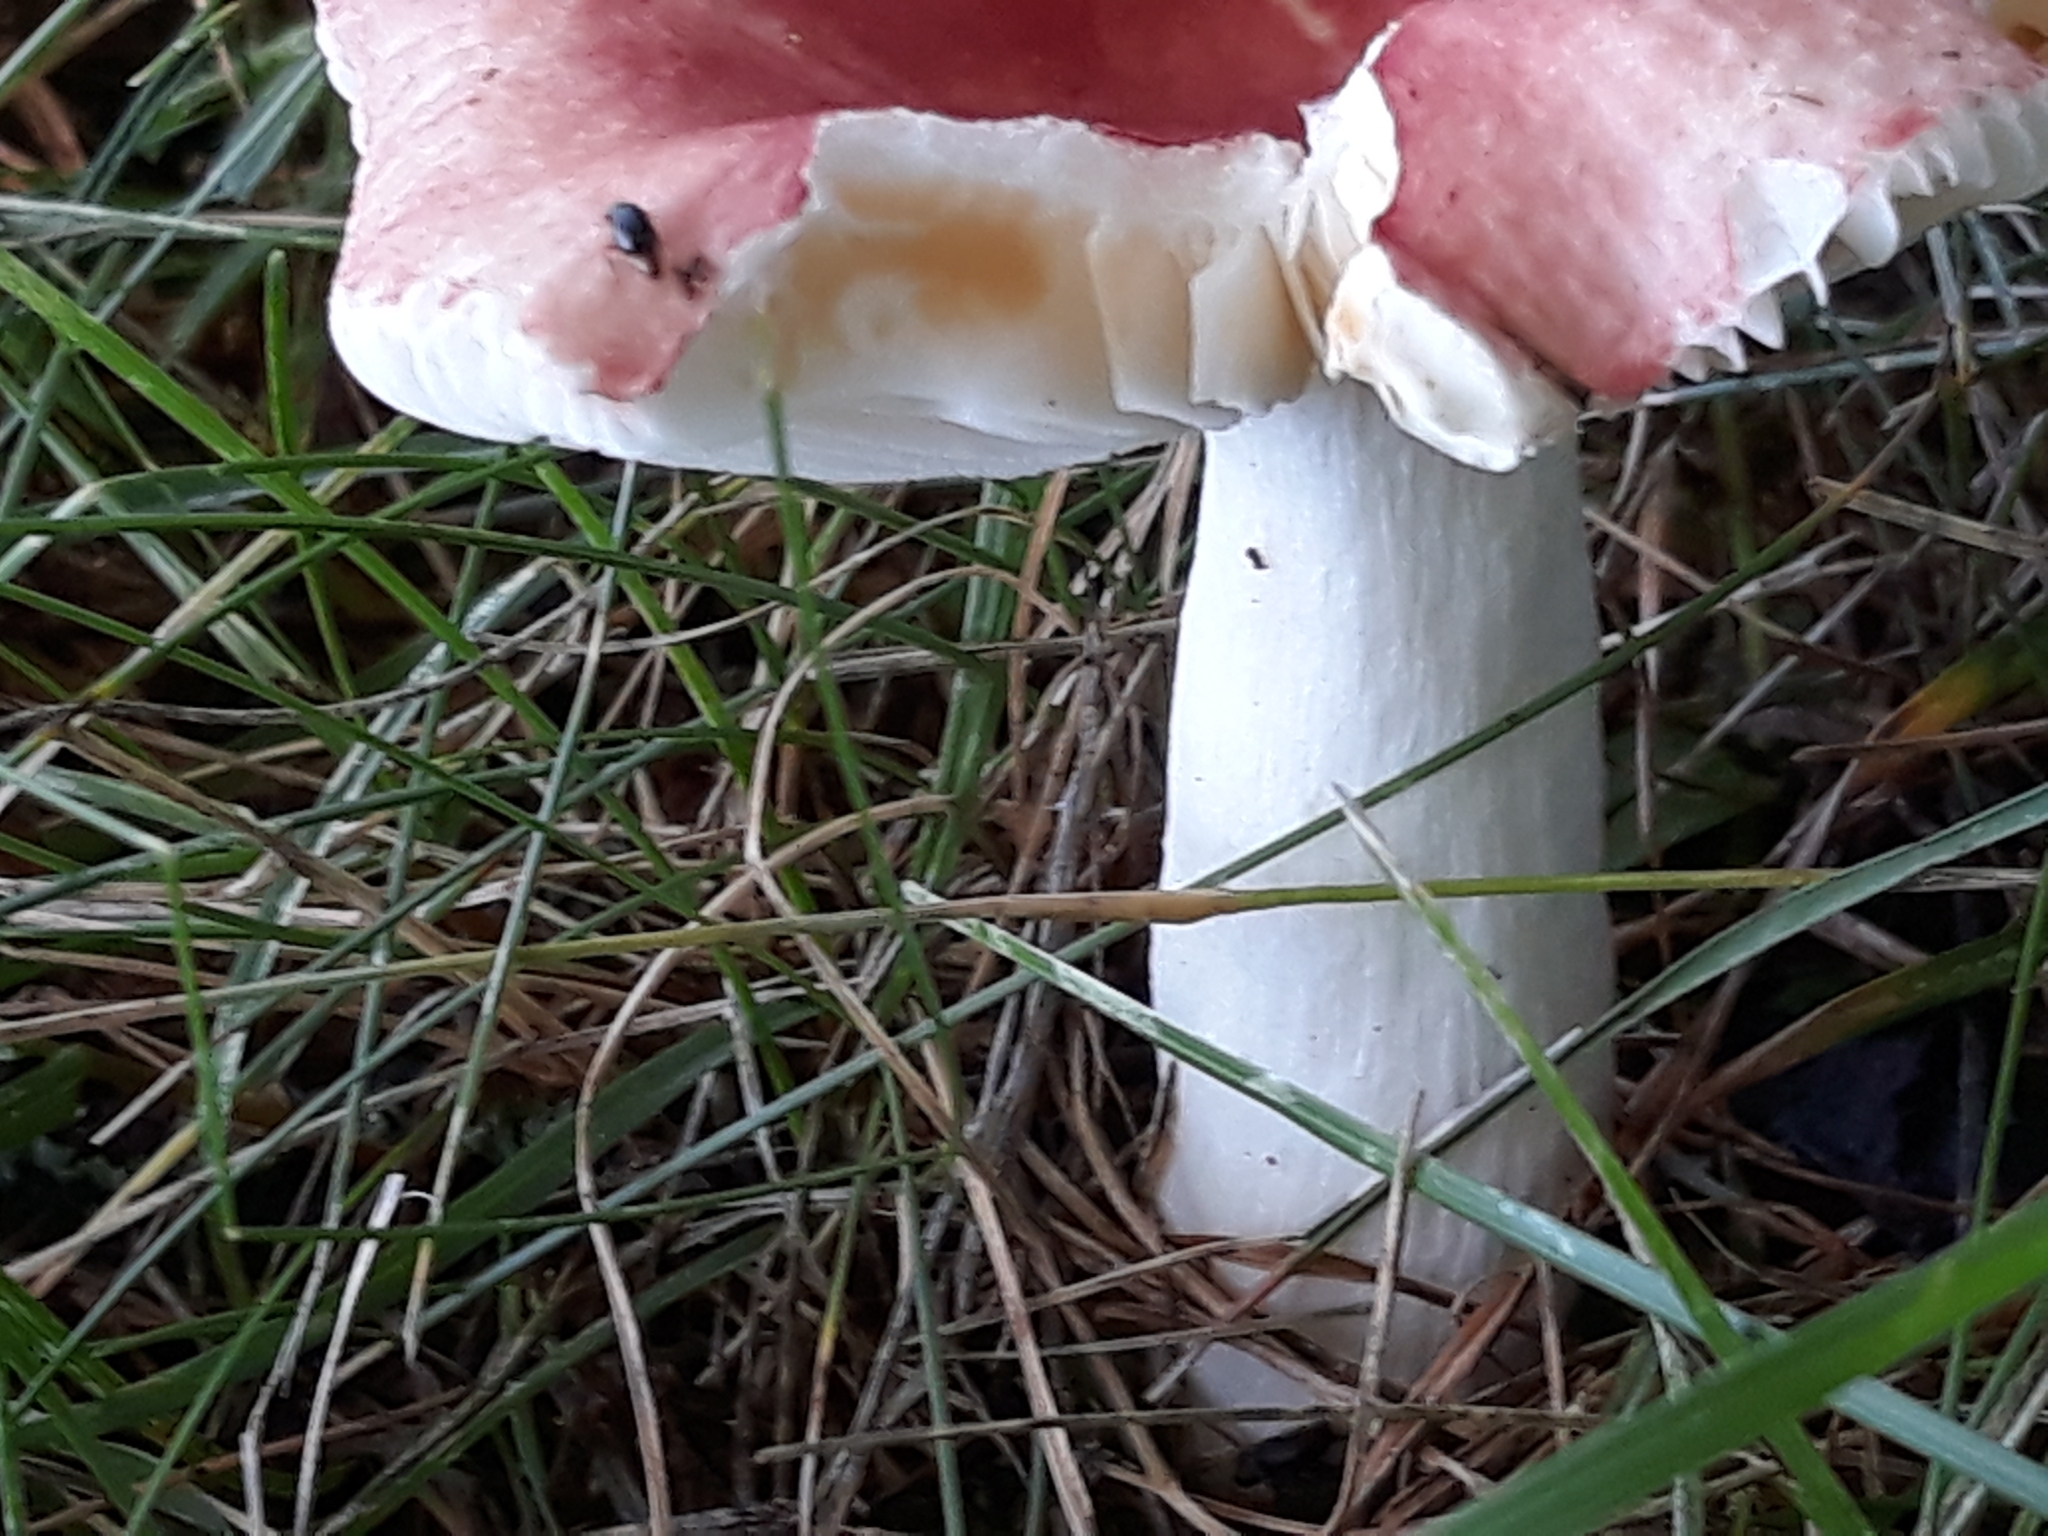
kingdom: Fungi
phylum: Basidiomycota
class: Agaricomycetes
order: Russulales
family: Russulaceae
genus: Russula
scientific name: Russula
